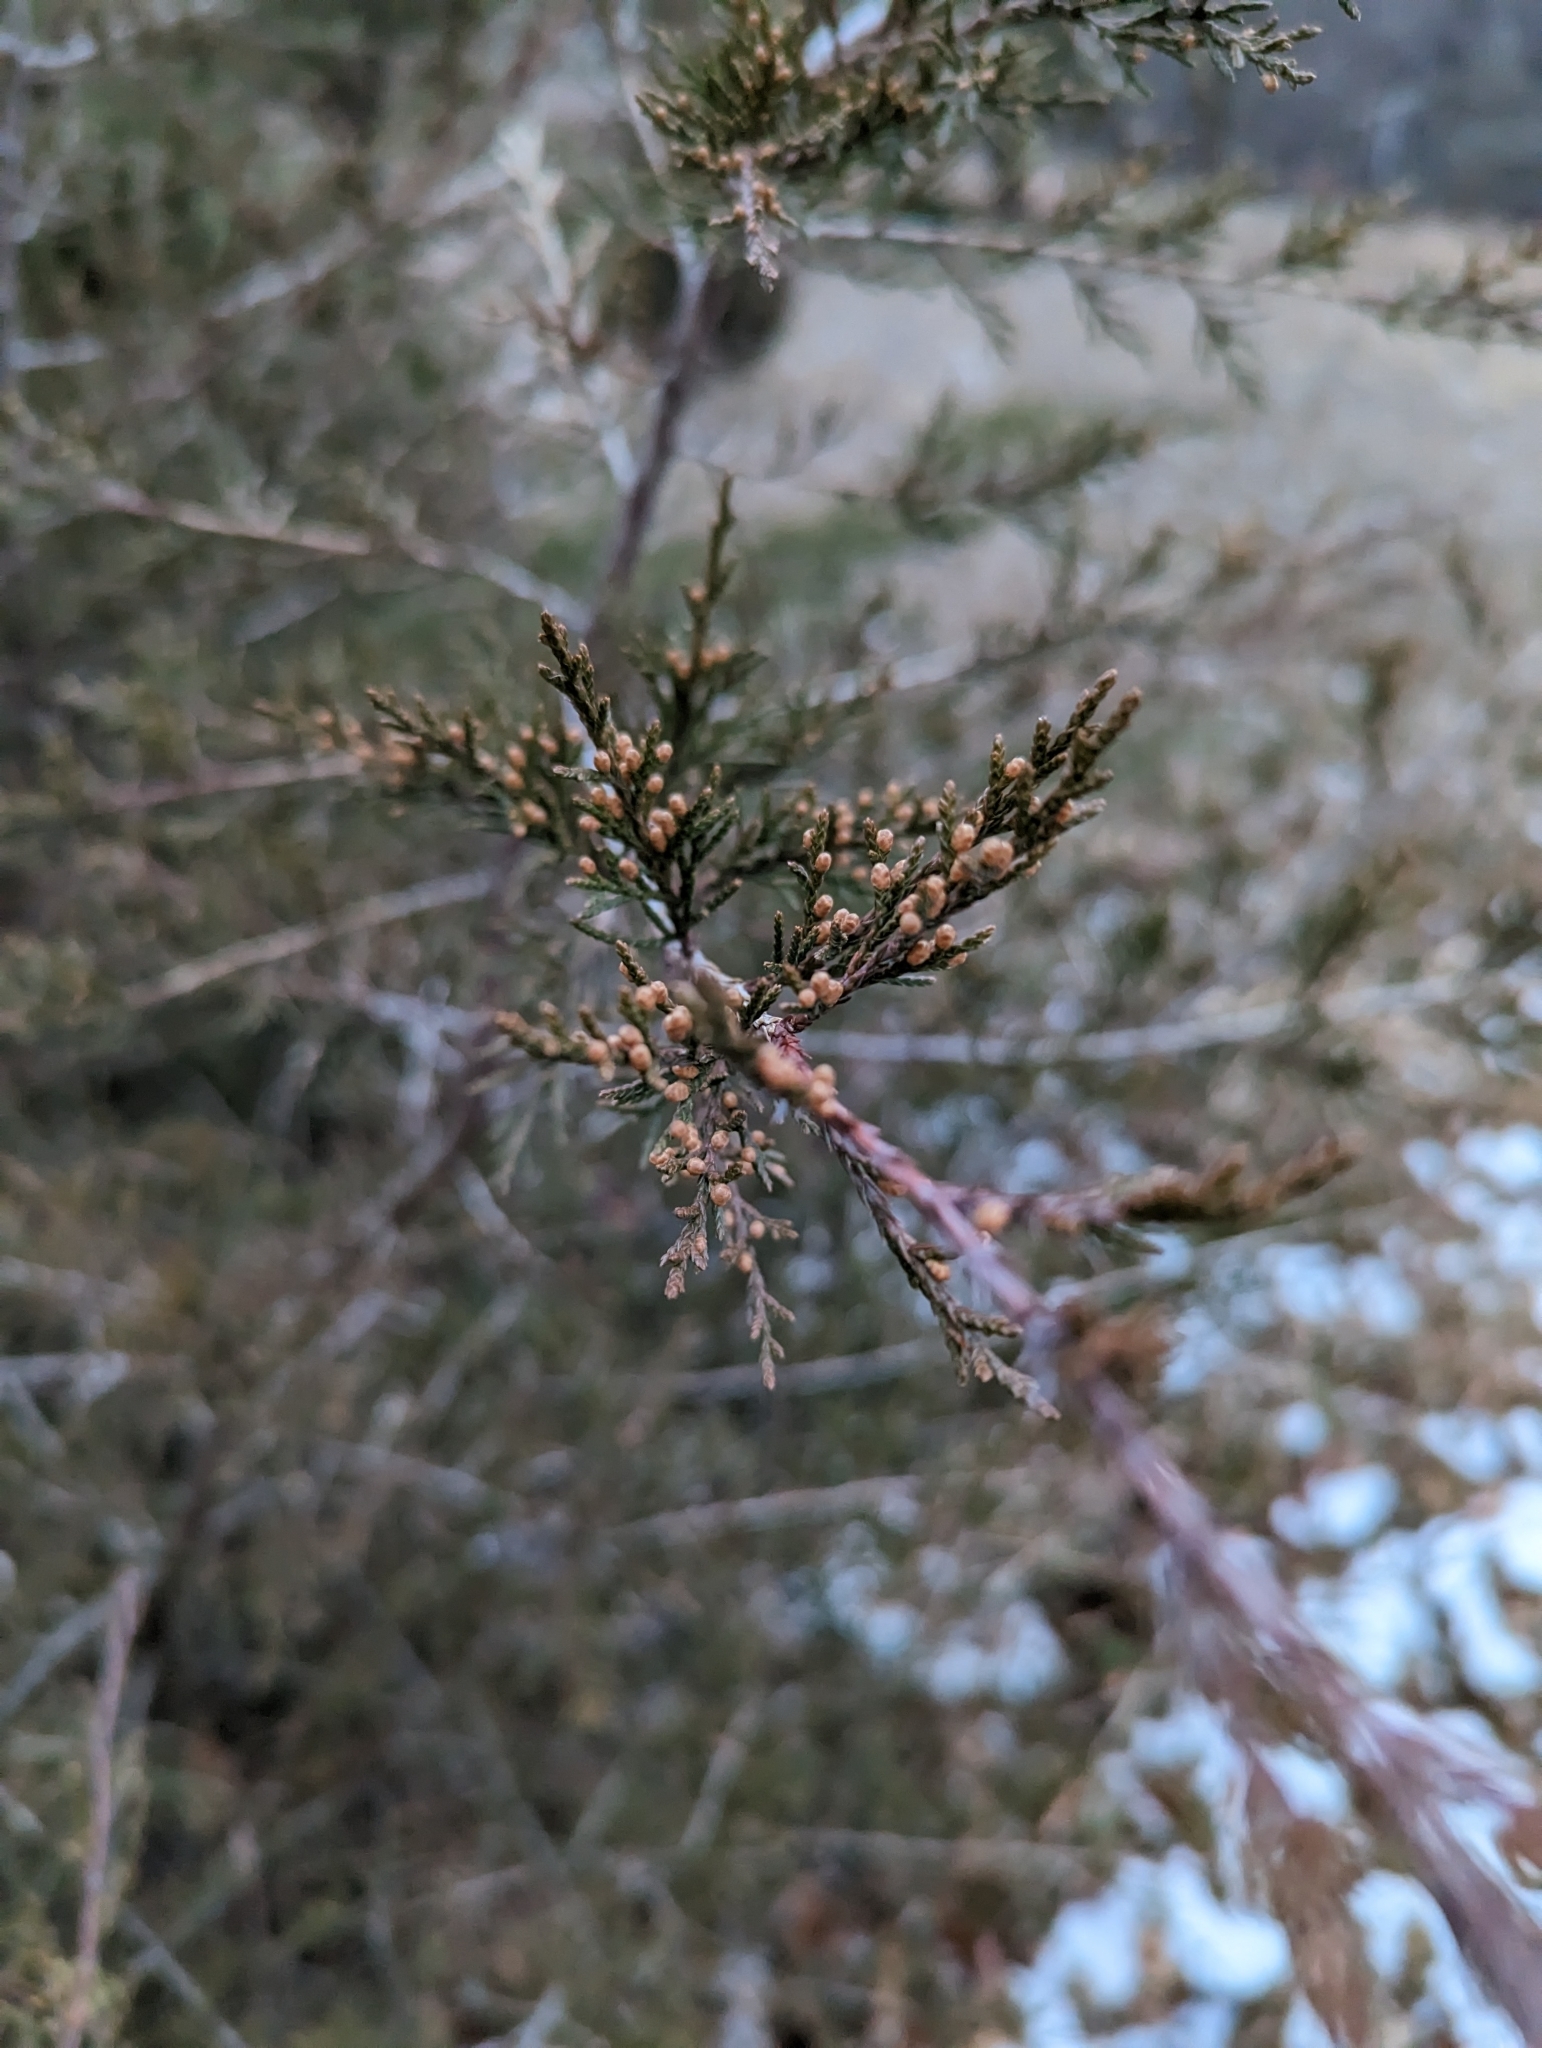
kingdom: Plantae
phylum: Tracheophyta
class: Pinopsida
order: Pinales
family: Cupressaceae
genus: Juniperus
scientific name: Juniperus virginiana
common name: Red juniper
